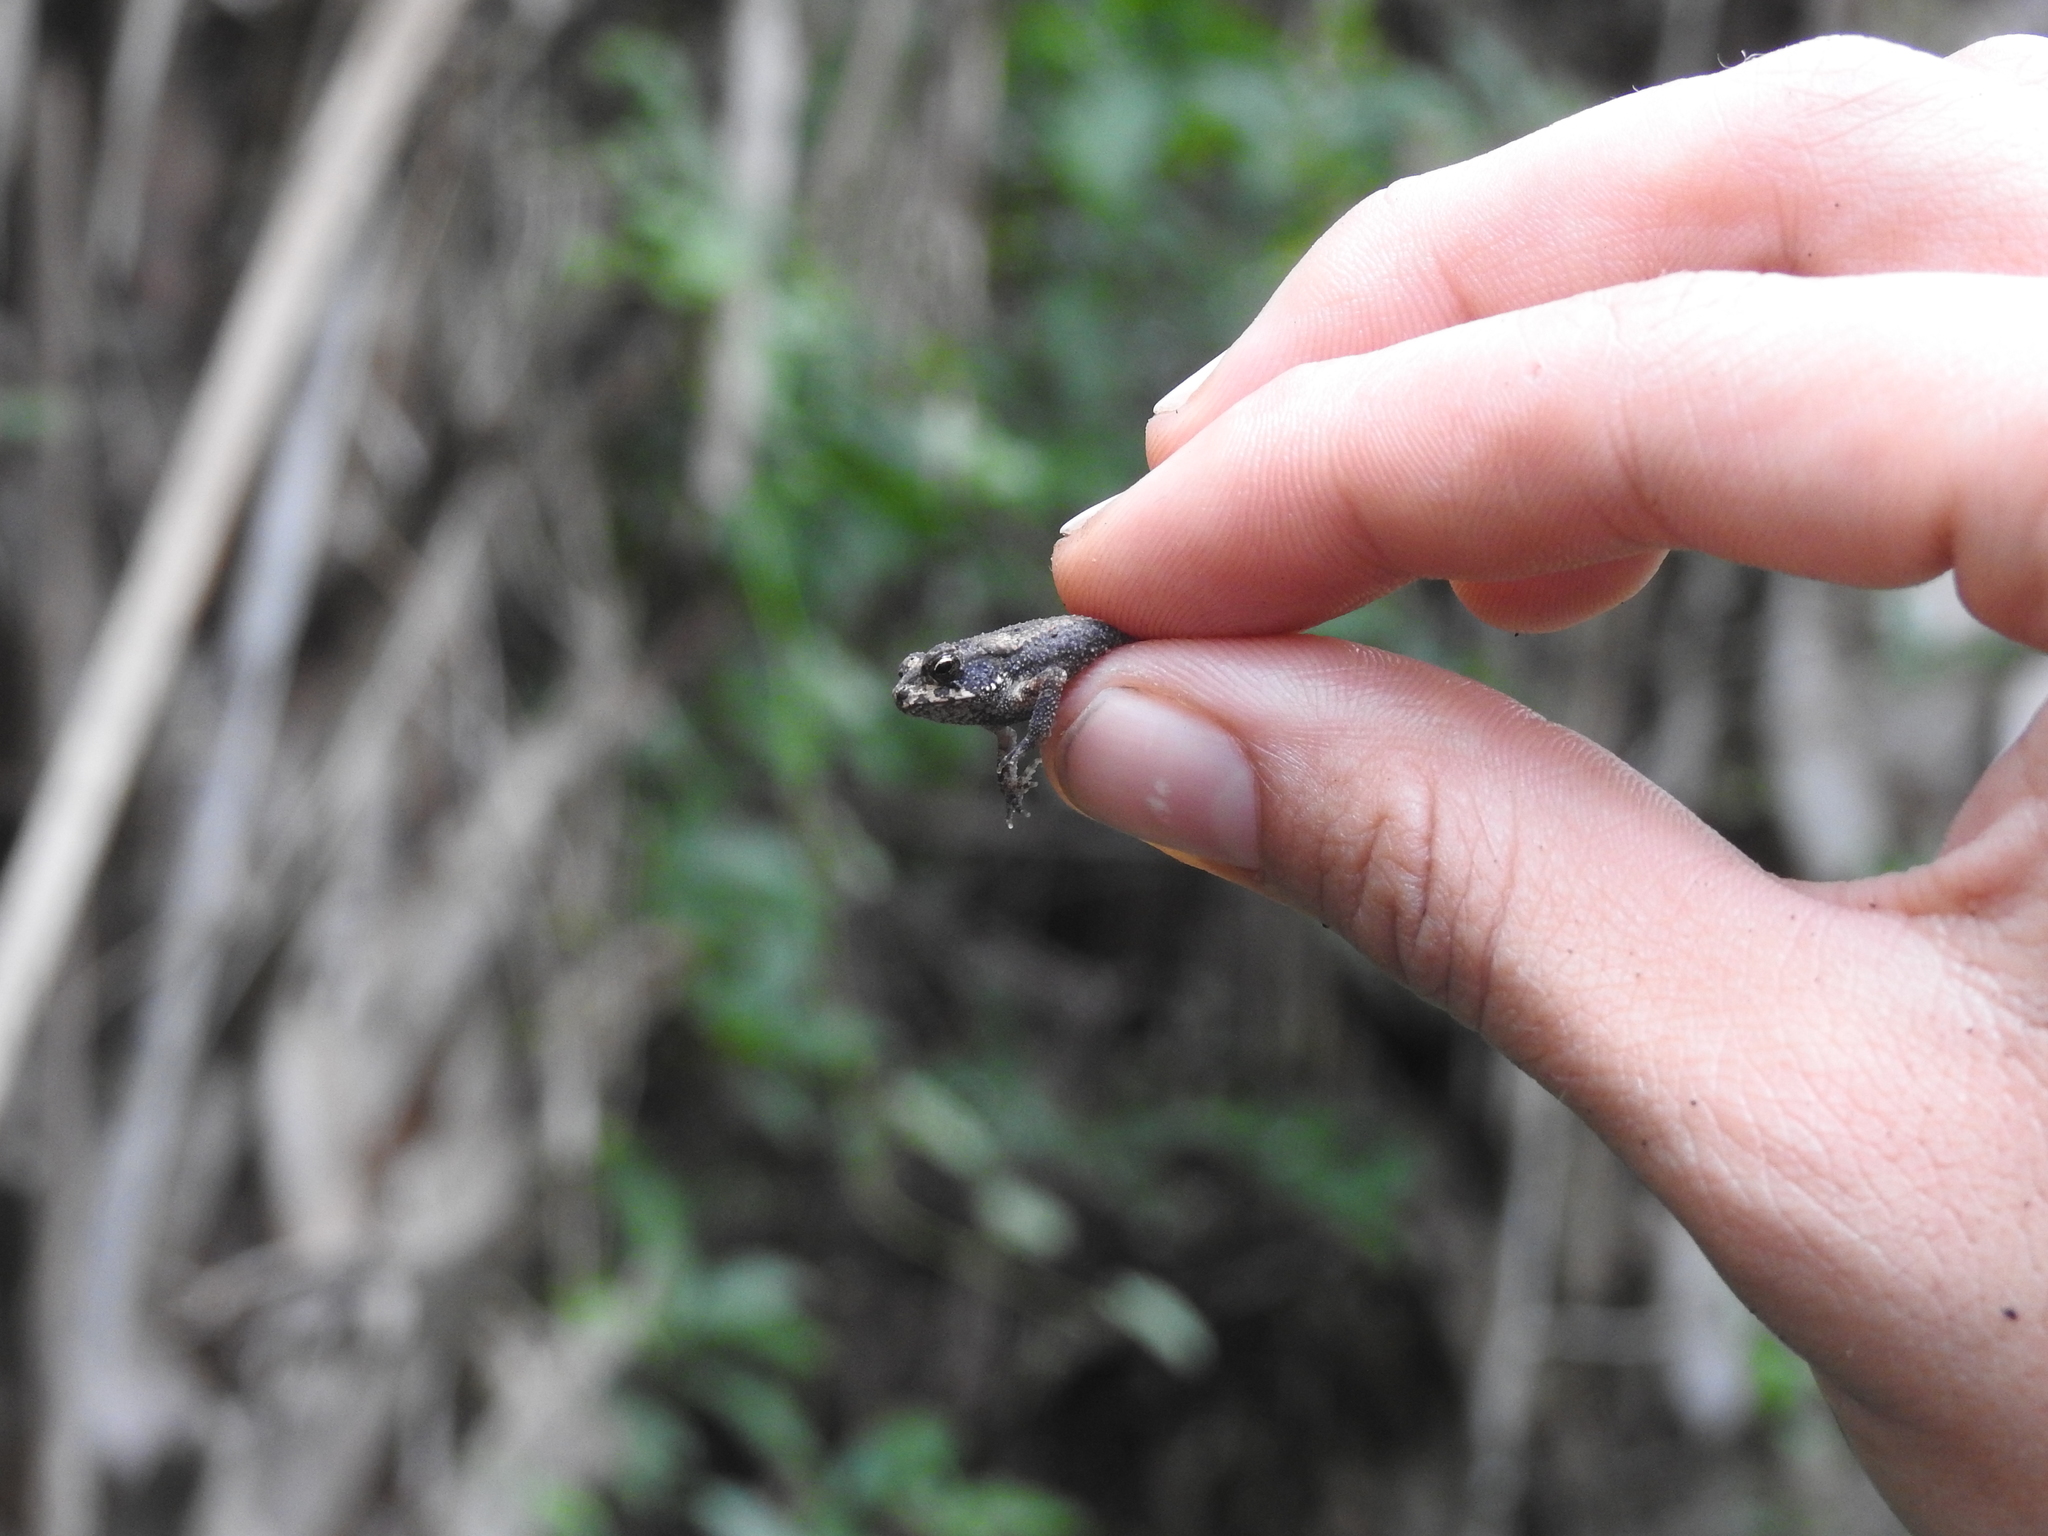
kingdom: Animalia
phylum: Chordata
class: Amphibia
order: Anura
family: Bufonidae
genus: Incilius
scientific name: Incilius nebulifer
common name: Gulf coast toad
